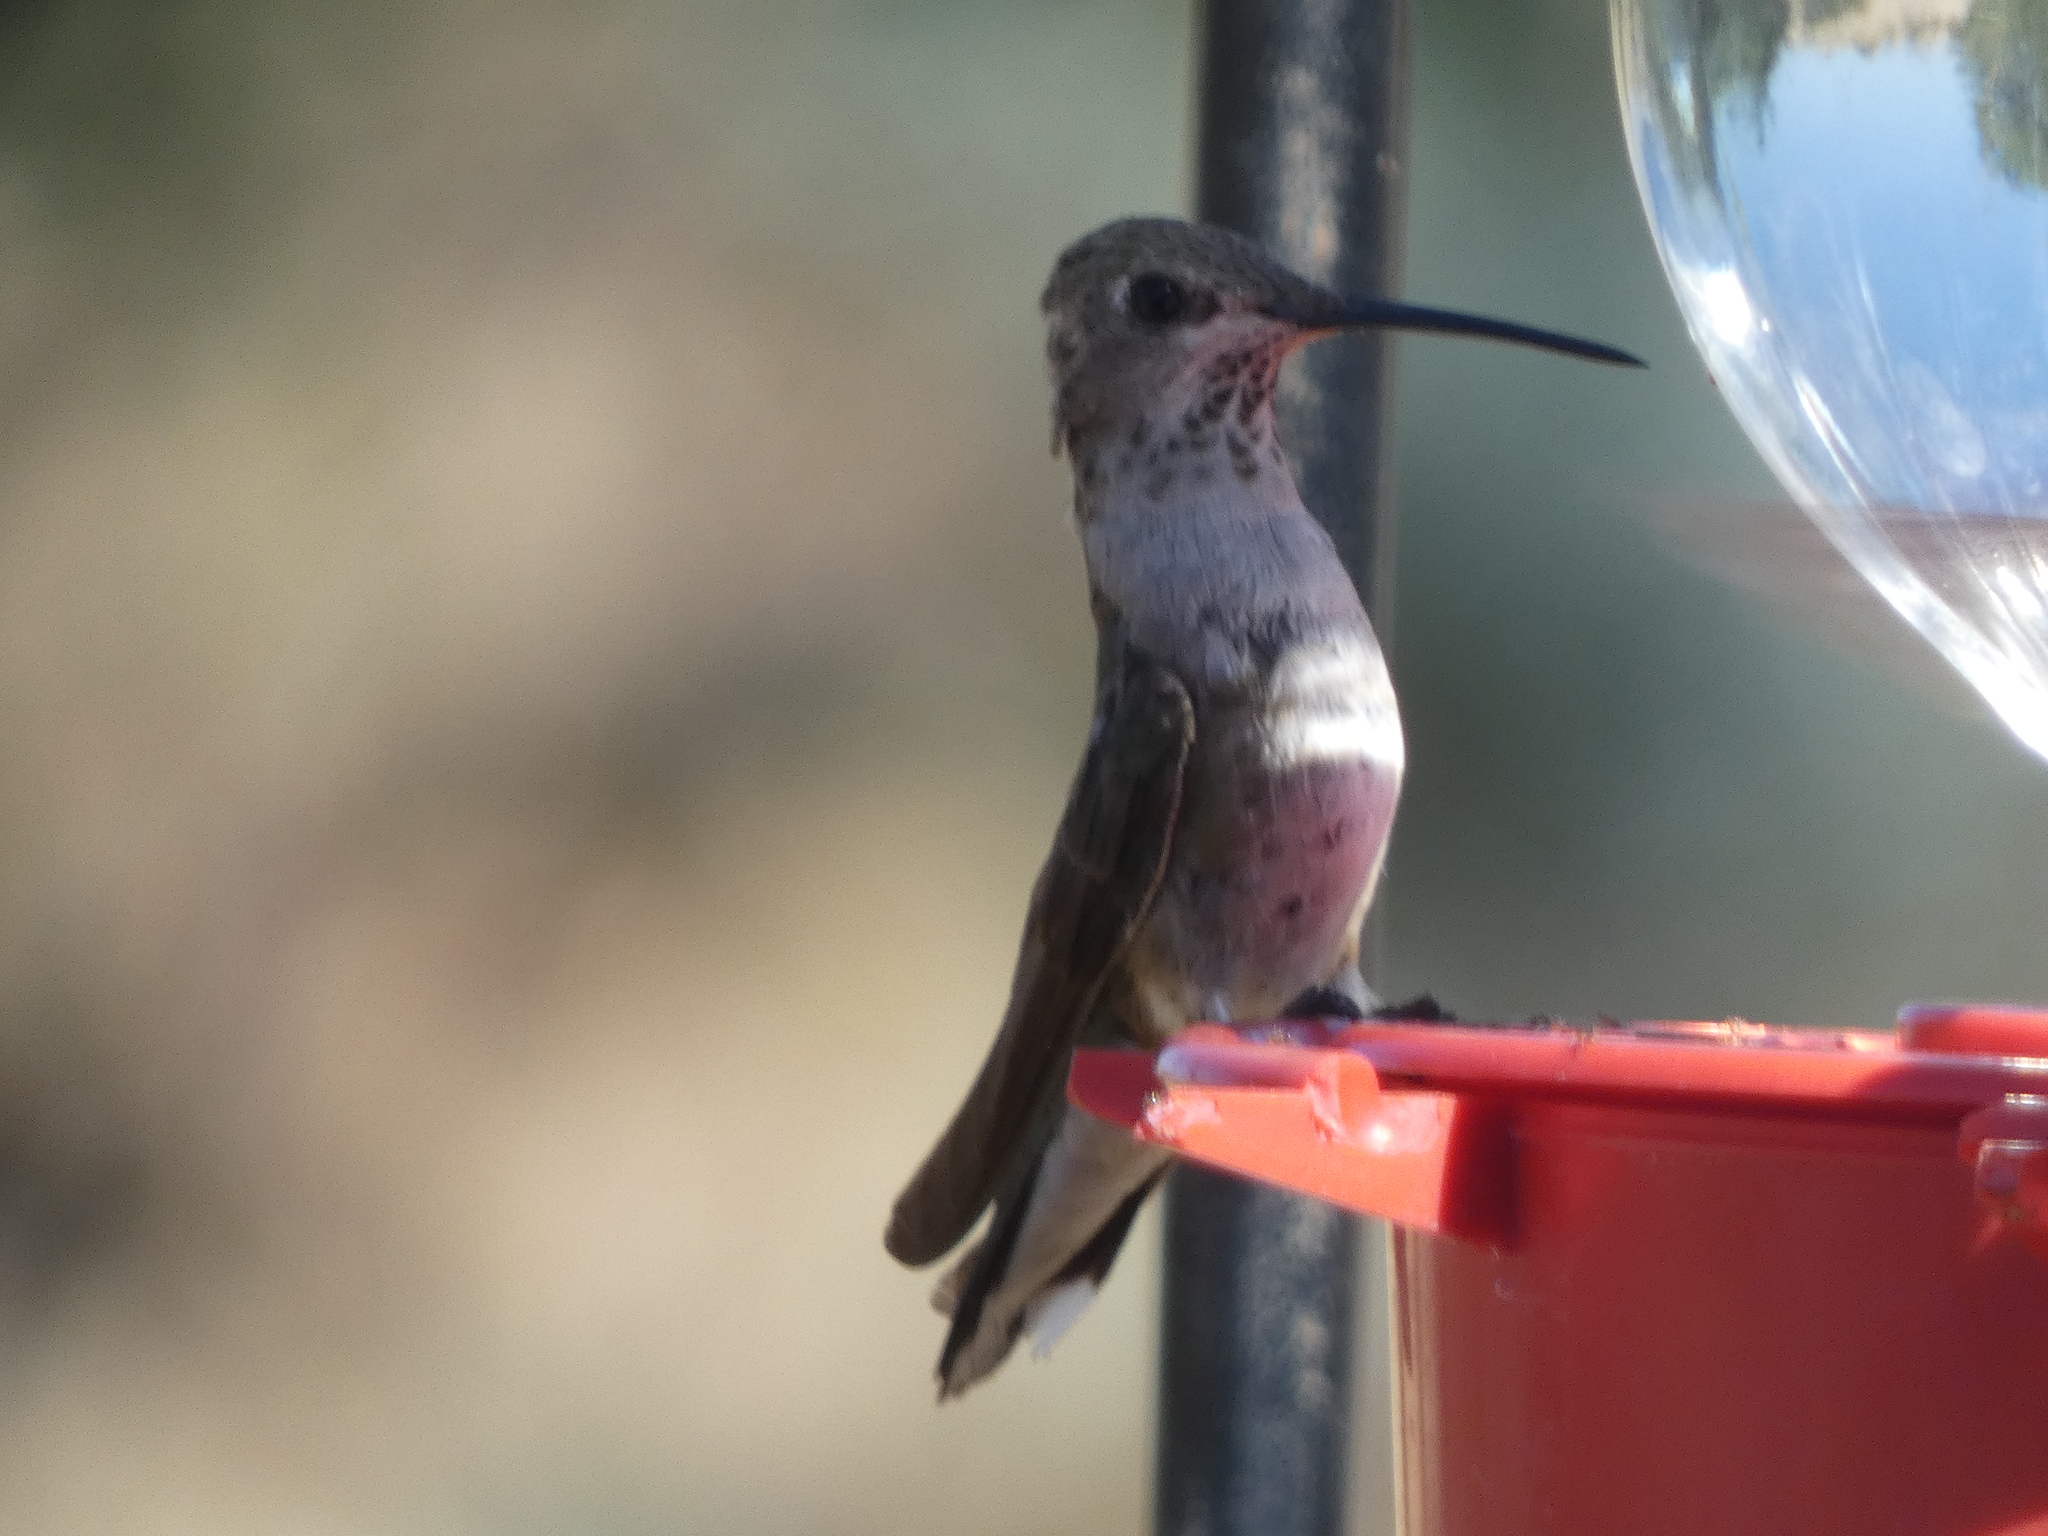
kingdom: Animalia
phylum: Chordata
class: Aves
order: Apodiformes
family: Trochilidae
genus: Archilochus
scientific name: Archilochus alexandri
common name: Black-chinned hummingbird
